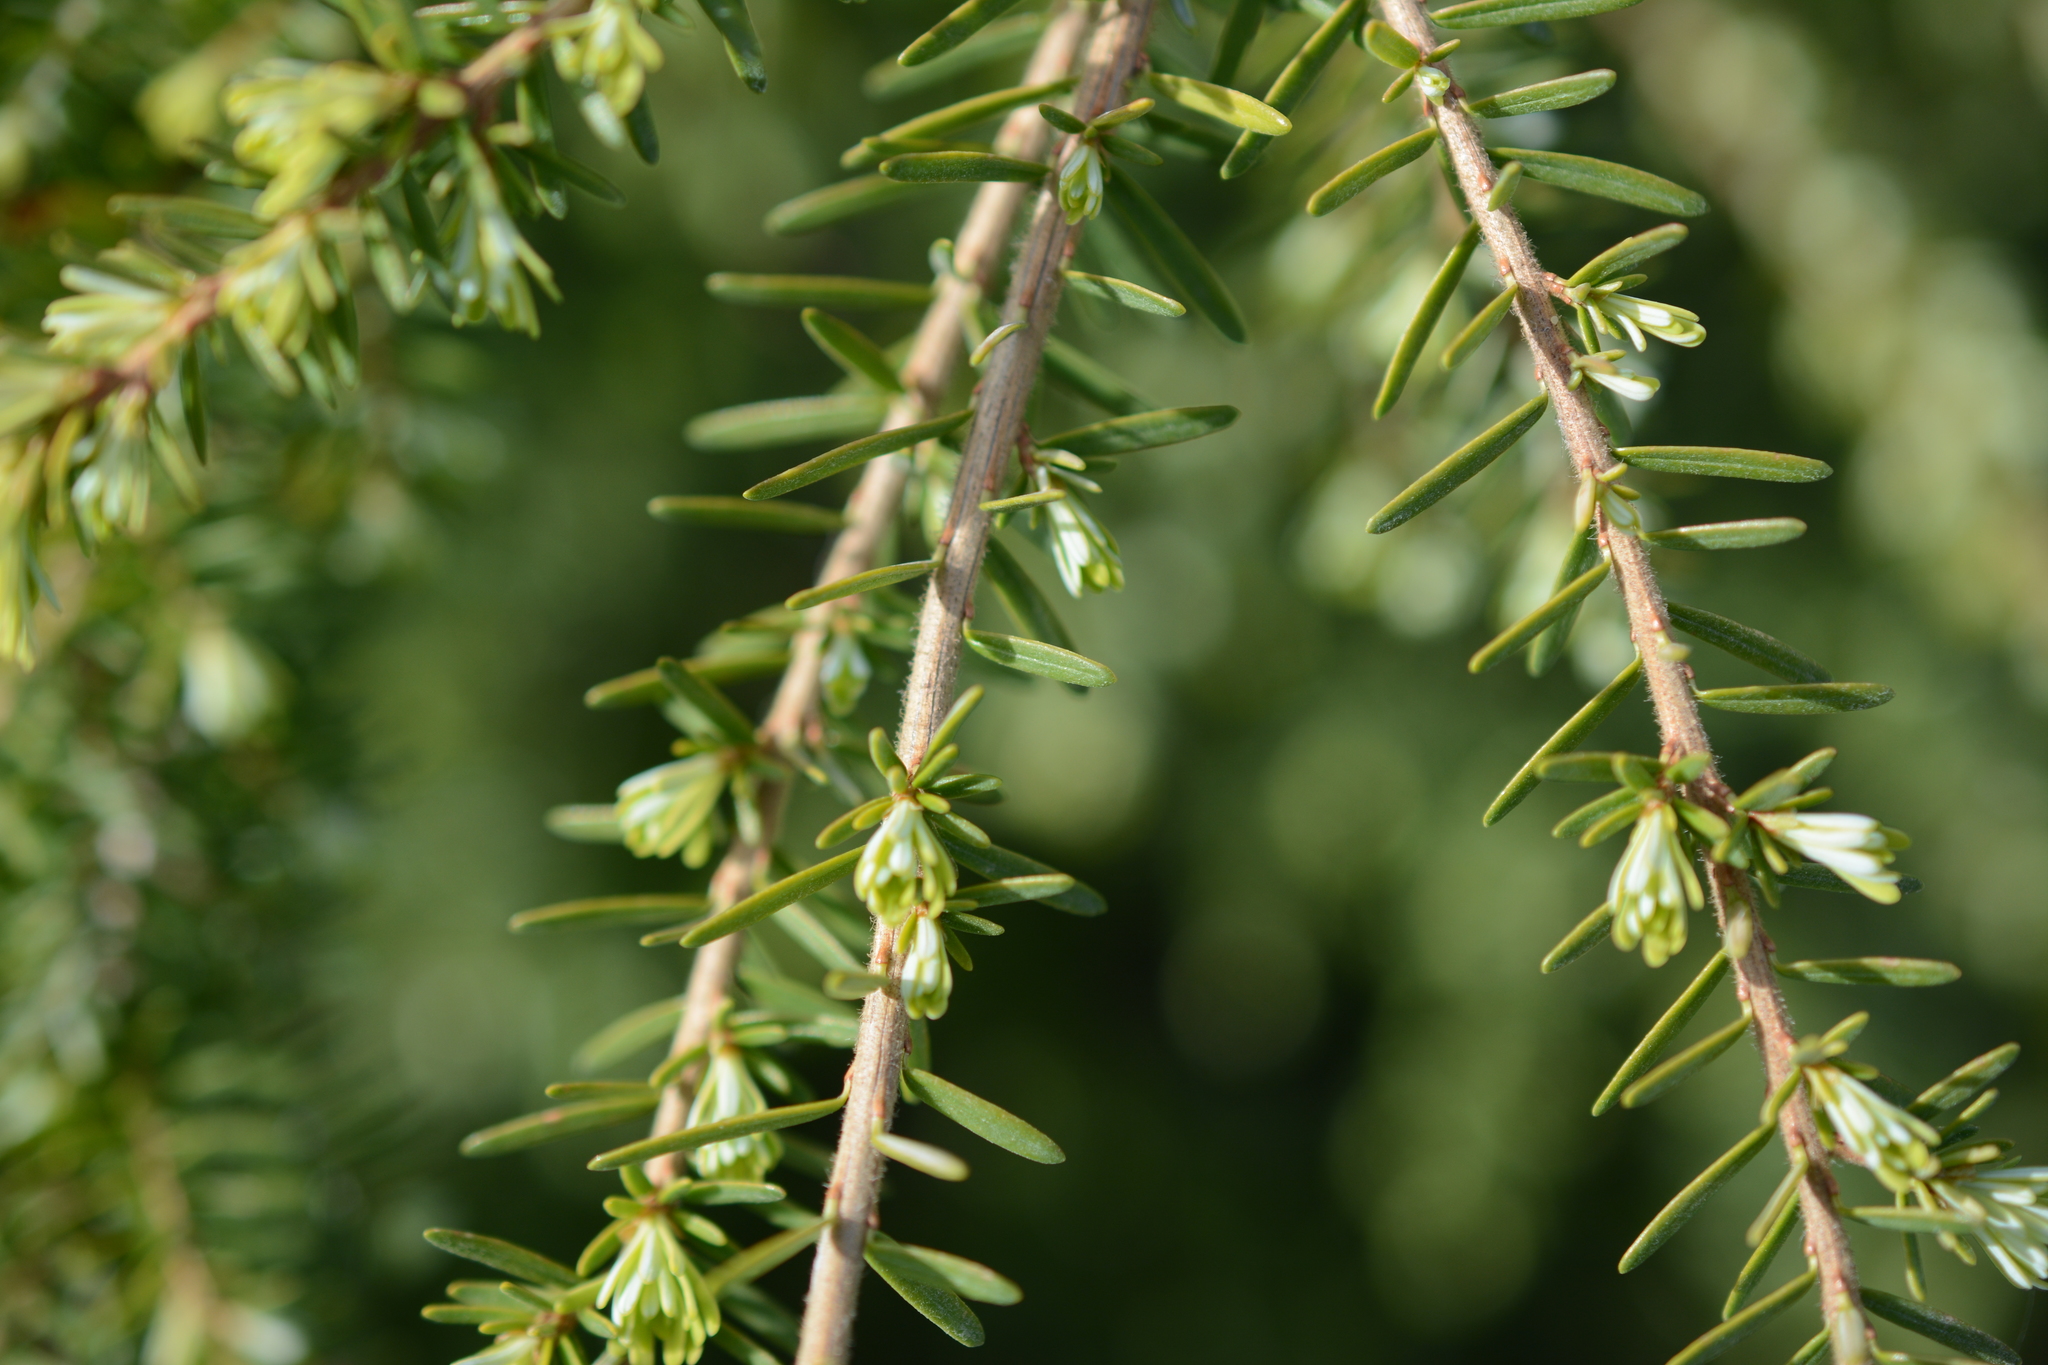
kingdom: Plantae
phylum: Tracheophyta
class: Pinopsida
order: Pinales
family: Pinaceae
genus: Tsuga
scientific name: Tsuga heterophylla
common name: Western hemlock
